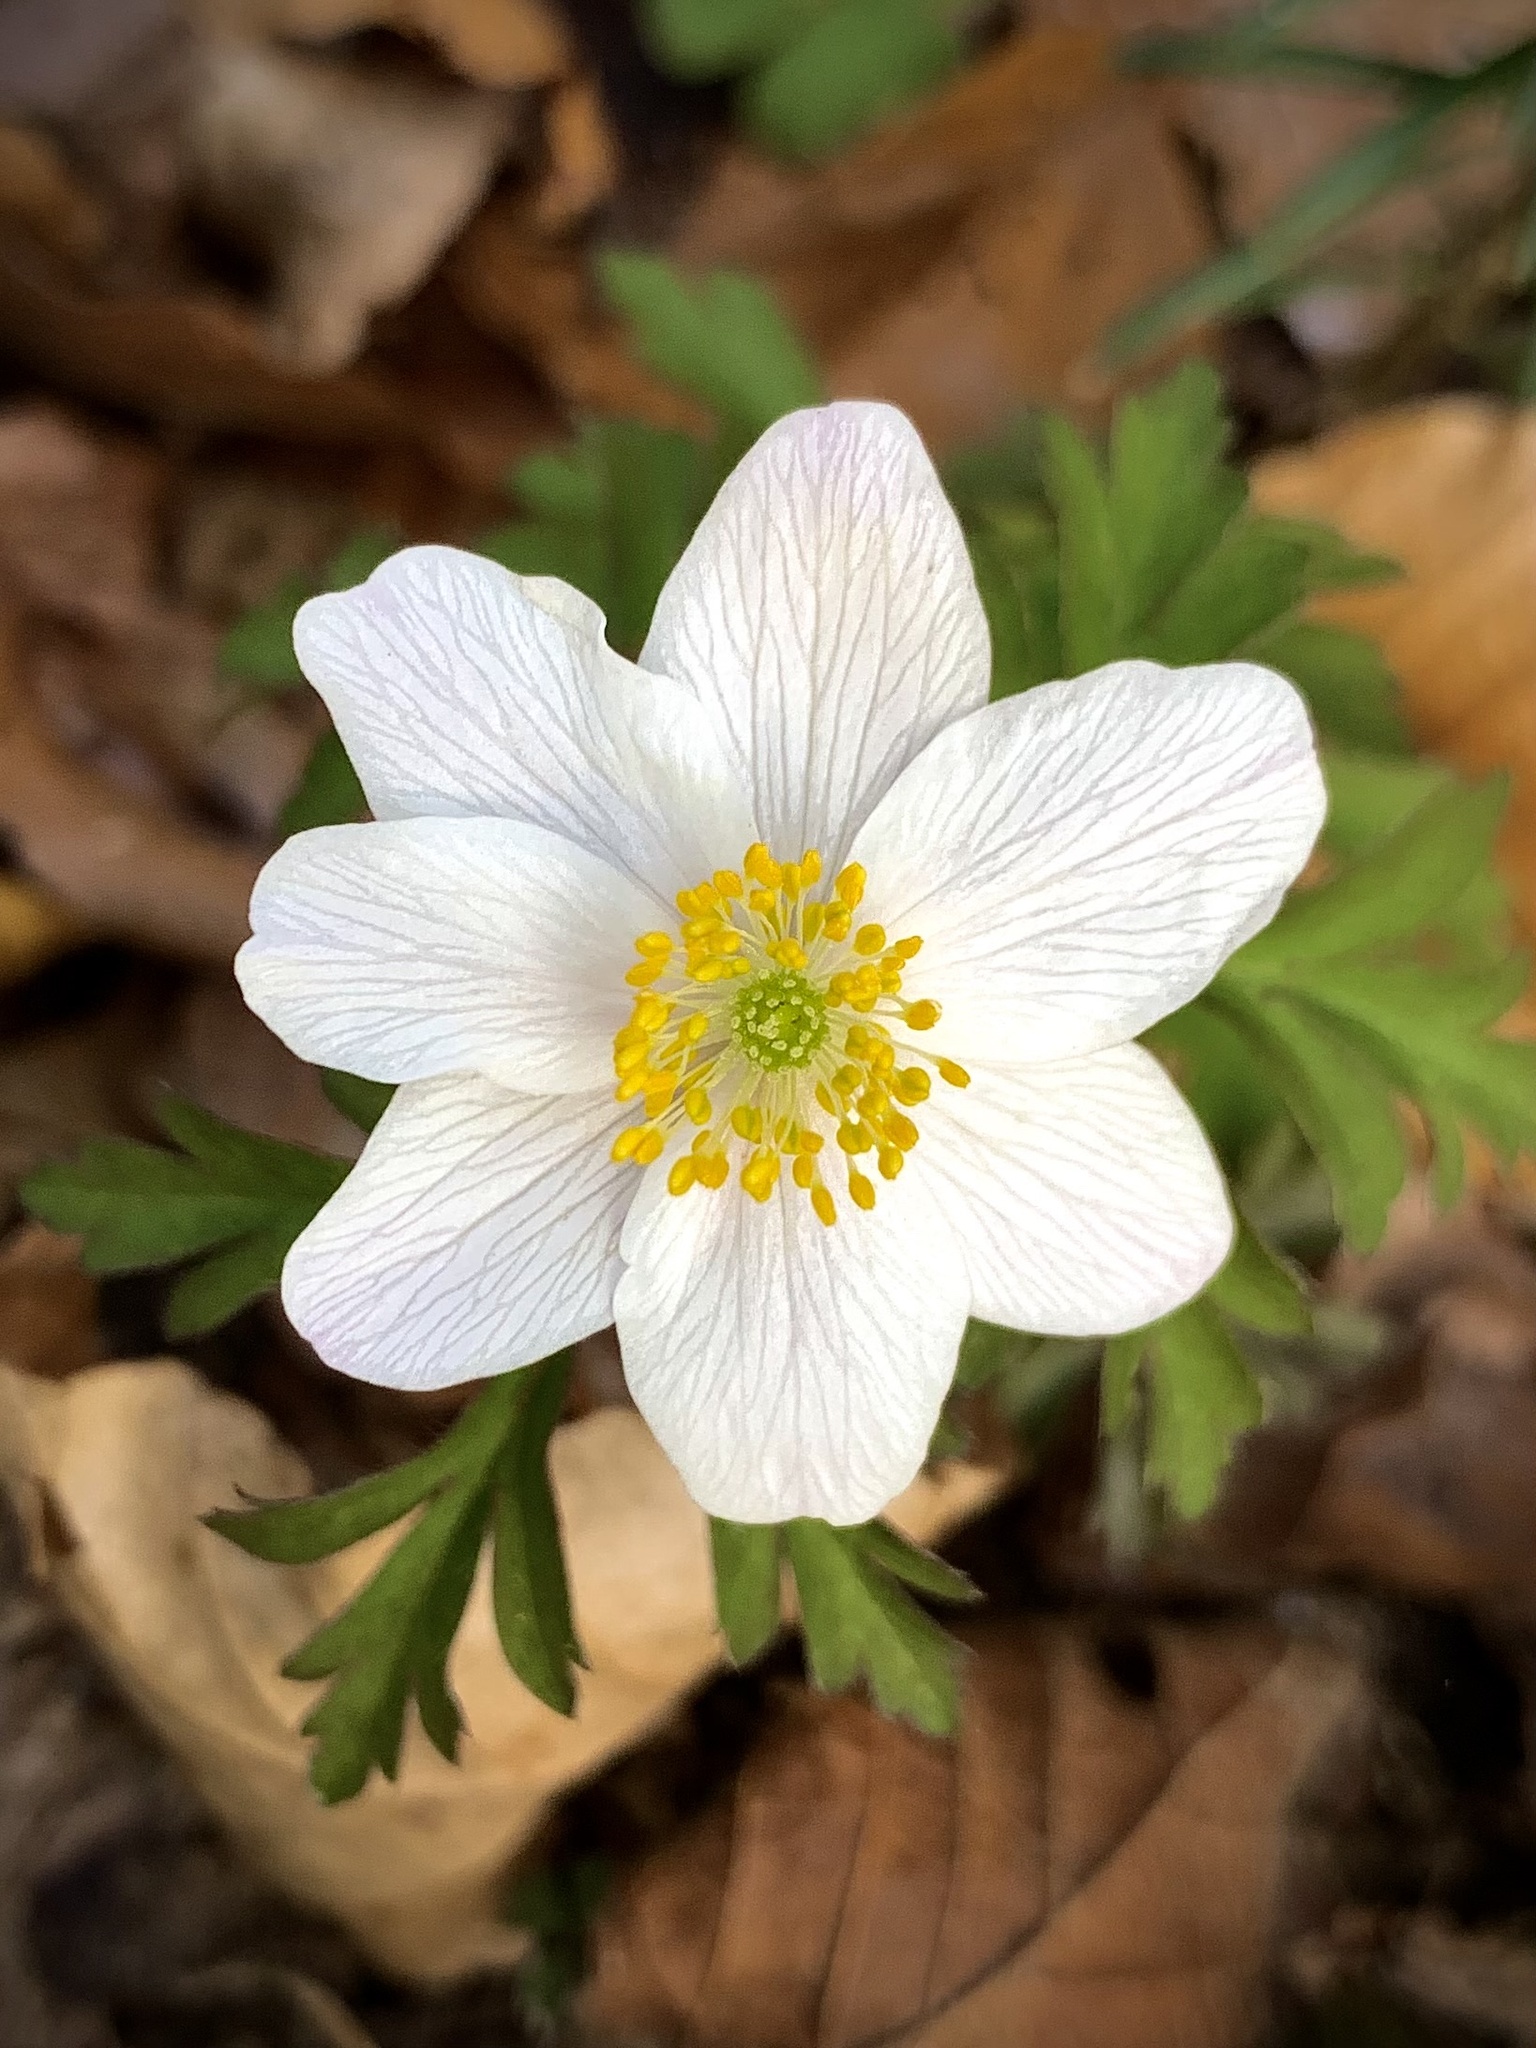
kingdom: Plantae
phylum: Tracheophyta
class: Magnoliopsida
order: Ranunculales
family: Ranunculaceae
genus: Anemone
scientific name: Anemone nemorosa
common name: Wood anemone
